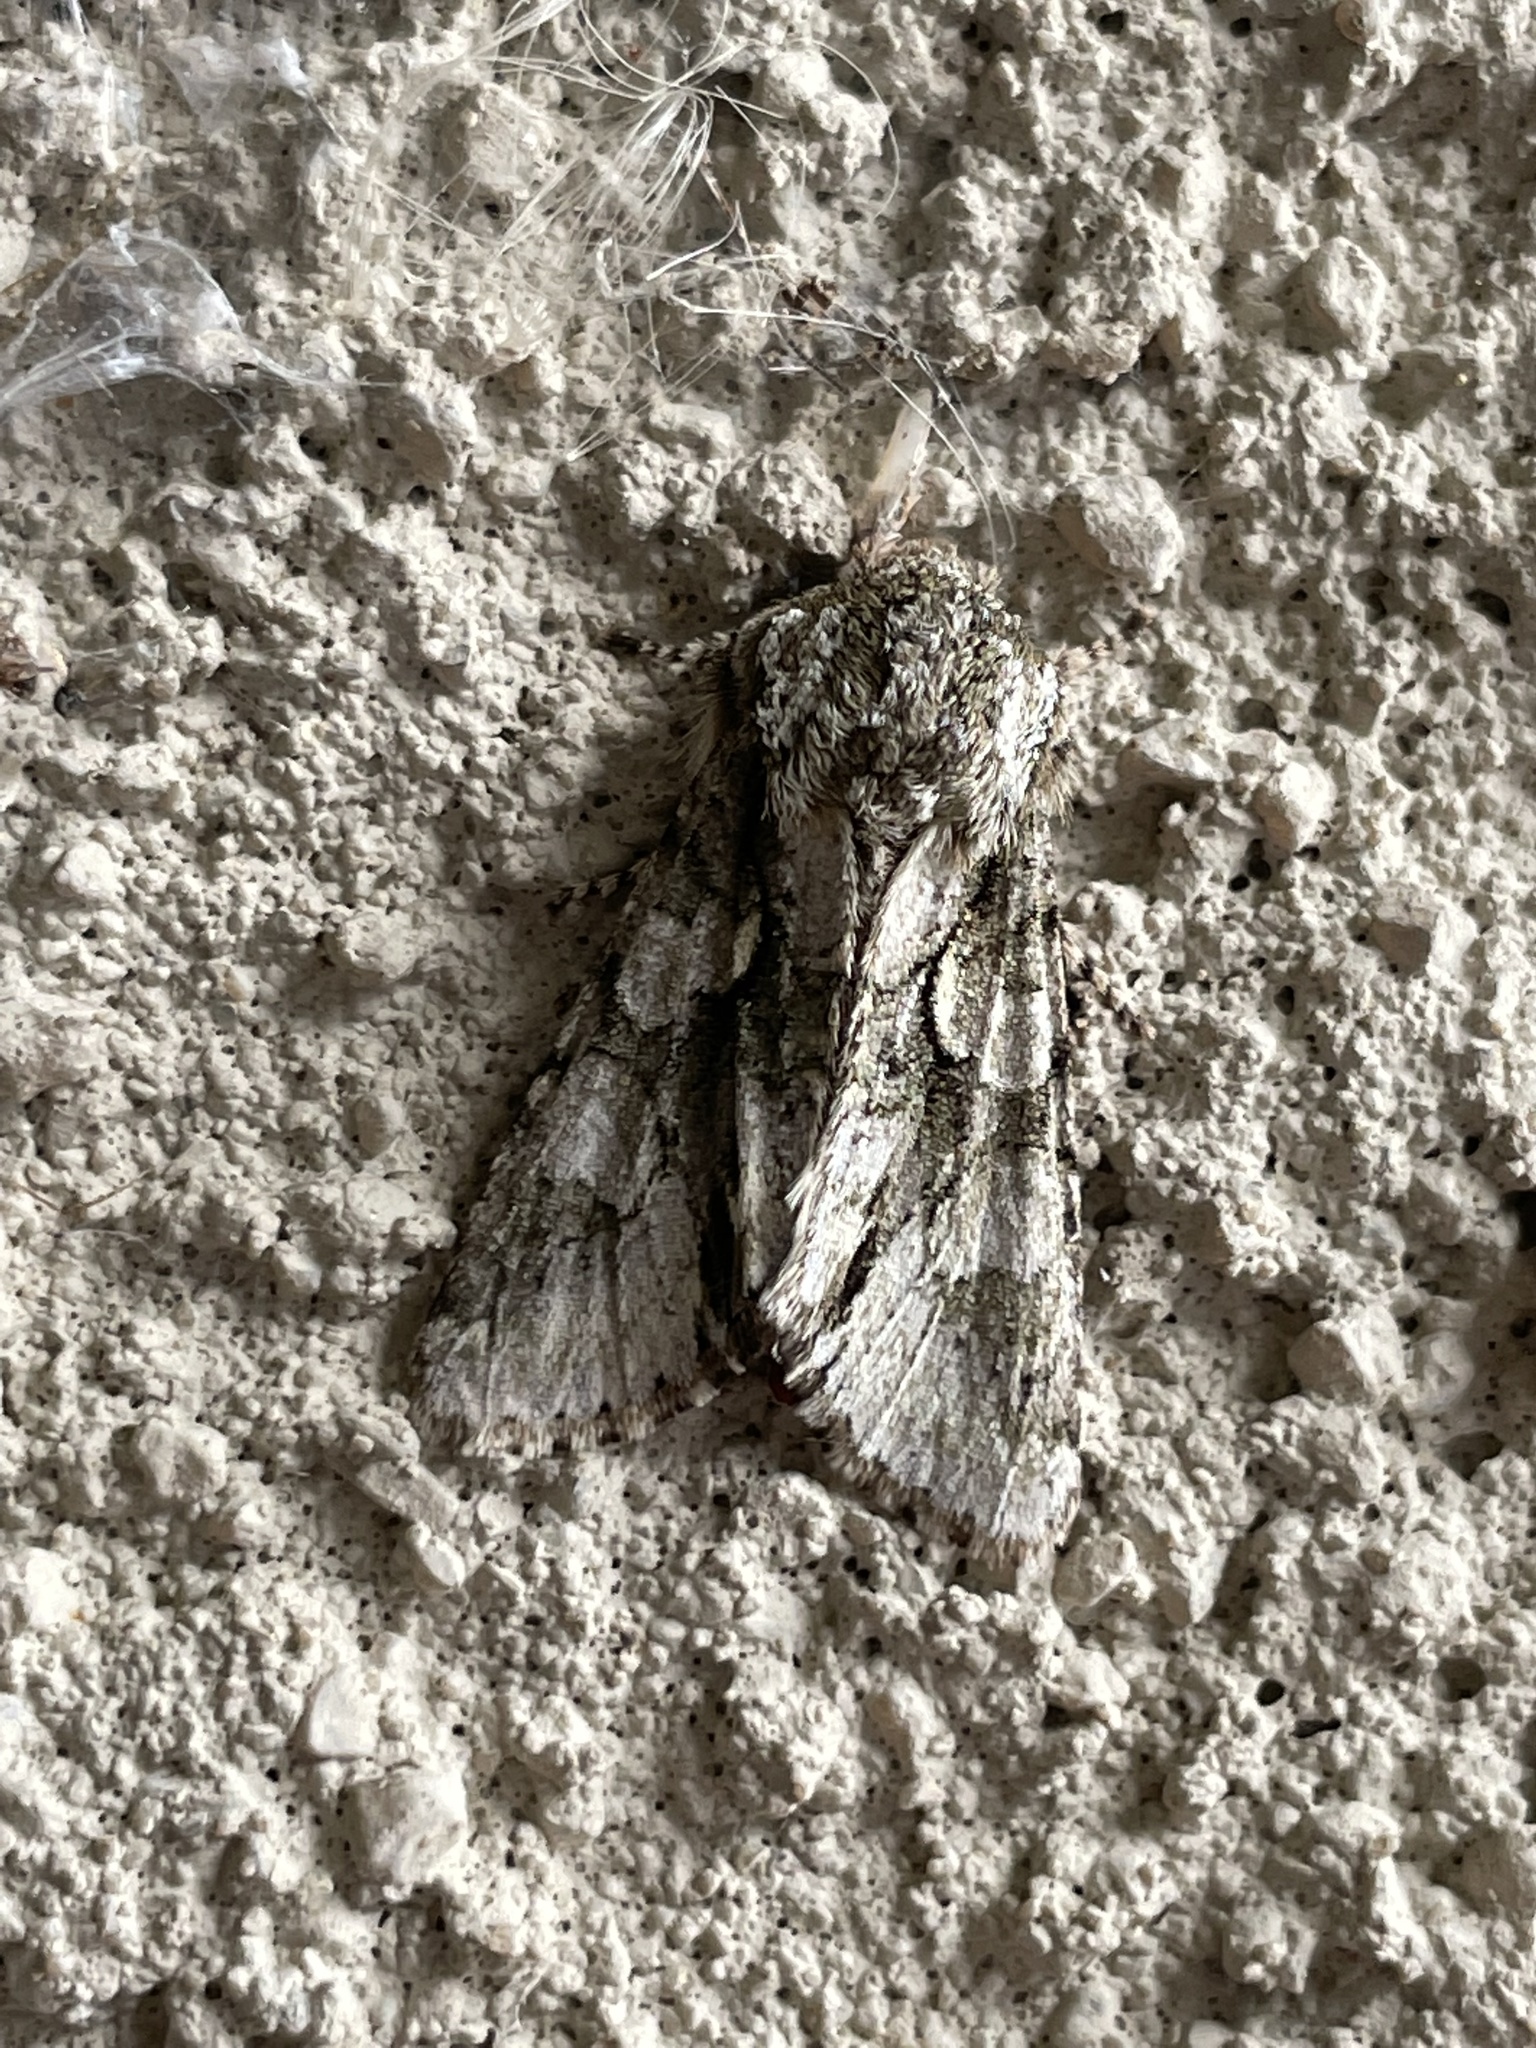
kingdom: Animalia
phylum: Arthropoda
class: Insecta
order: Lepidoptera
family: Noctuidae
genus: Psaphida
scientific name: Psaphida resumens
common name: Figure-eight sallow
